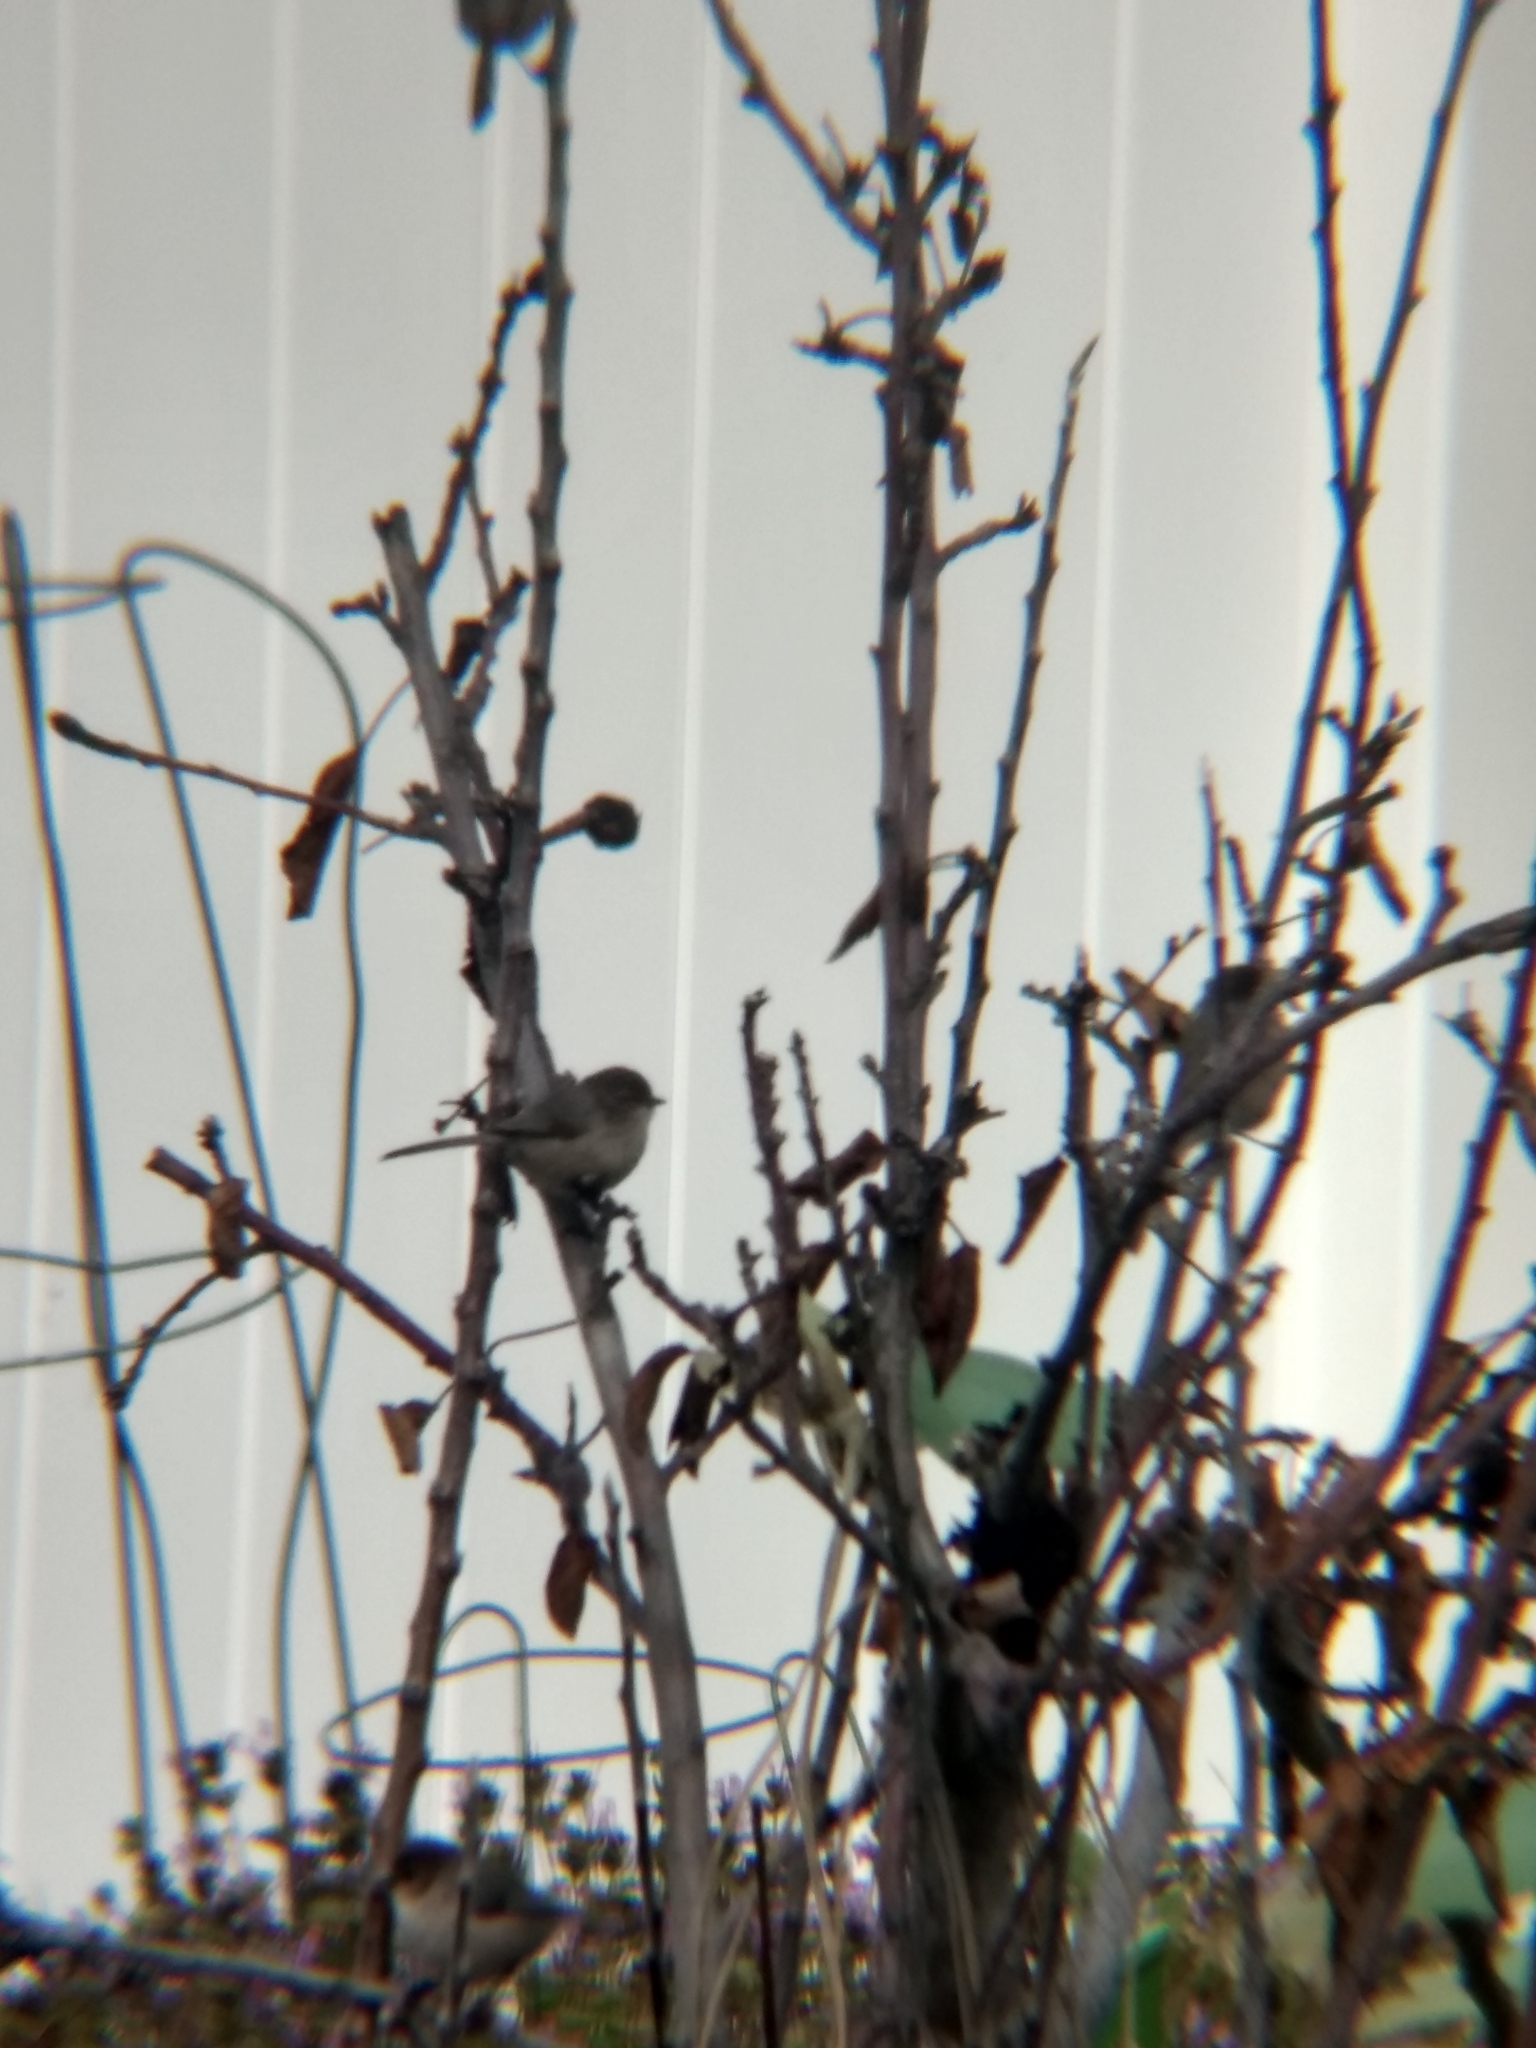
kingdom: Animalia
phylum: Chordata
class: Aves
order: Passeriformes
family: Aegithalidae
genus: Psaltriparus
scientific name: Psaltriparus minimus
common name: American bushtit
